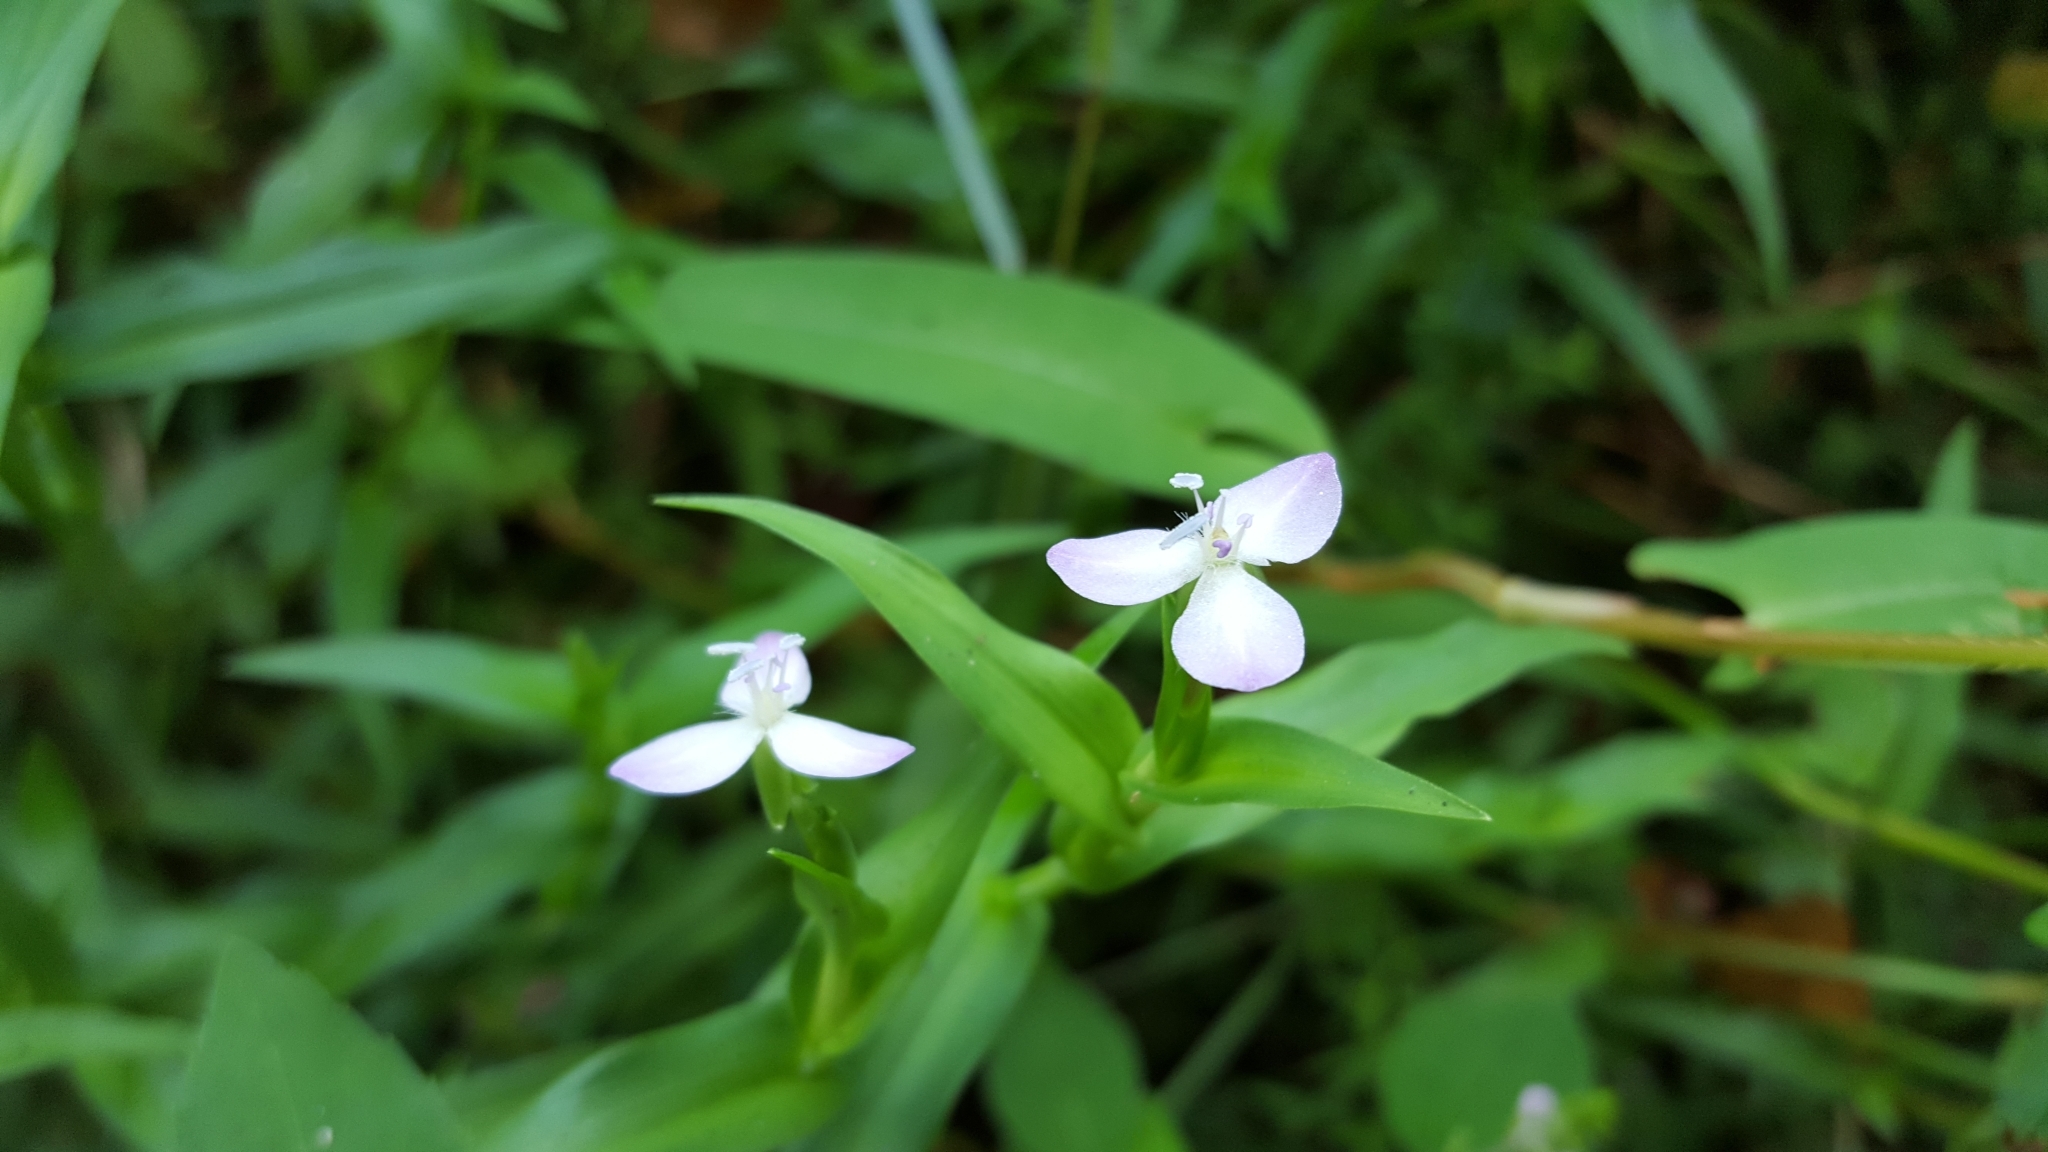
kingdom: Plantae
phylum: Tracheophyta
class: Liliopsida
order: Commelinales
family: Commelinaceae
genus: Murdannia
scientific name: Murdannia keisak
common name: Wartremoving herb
